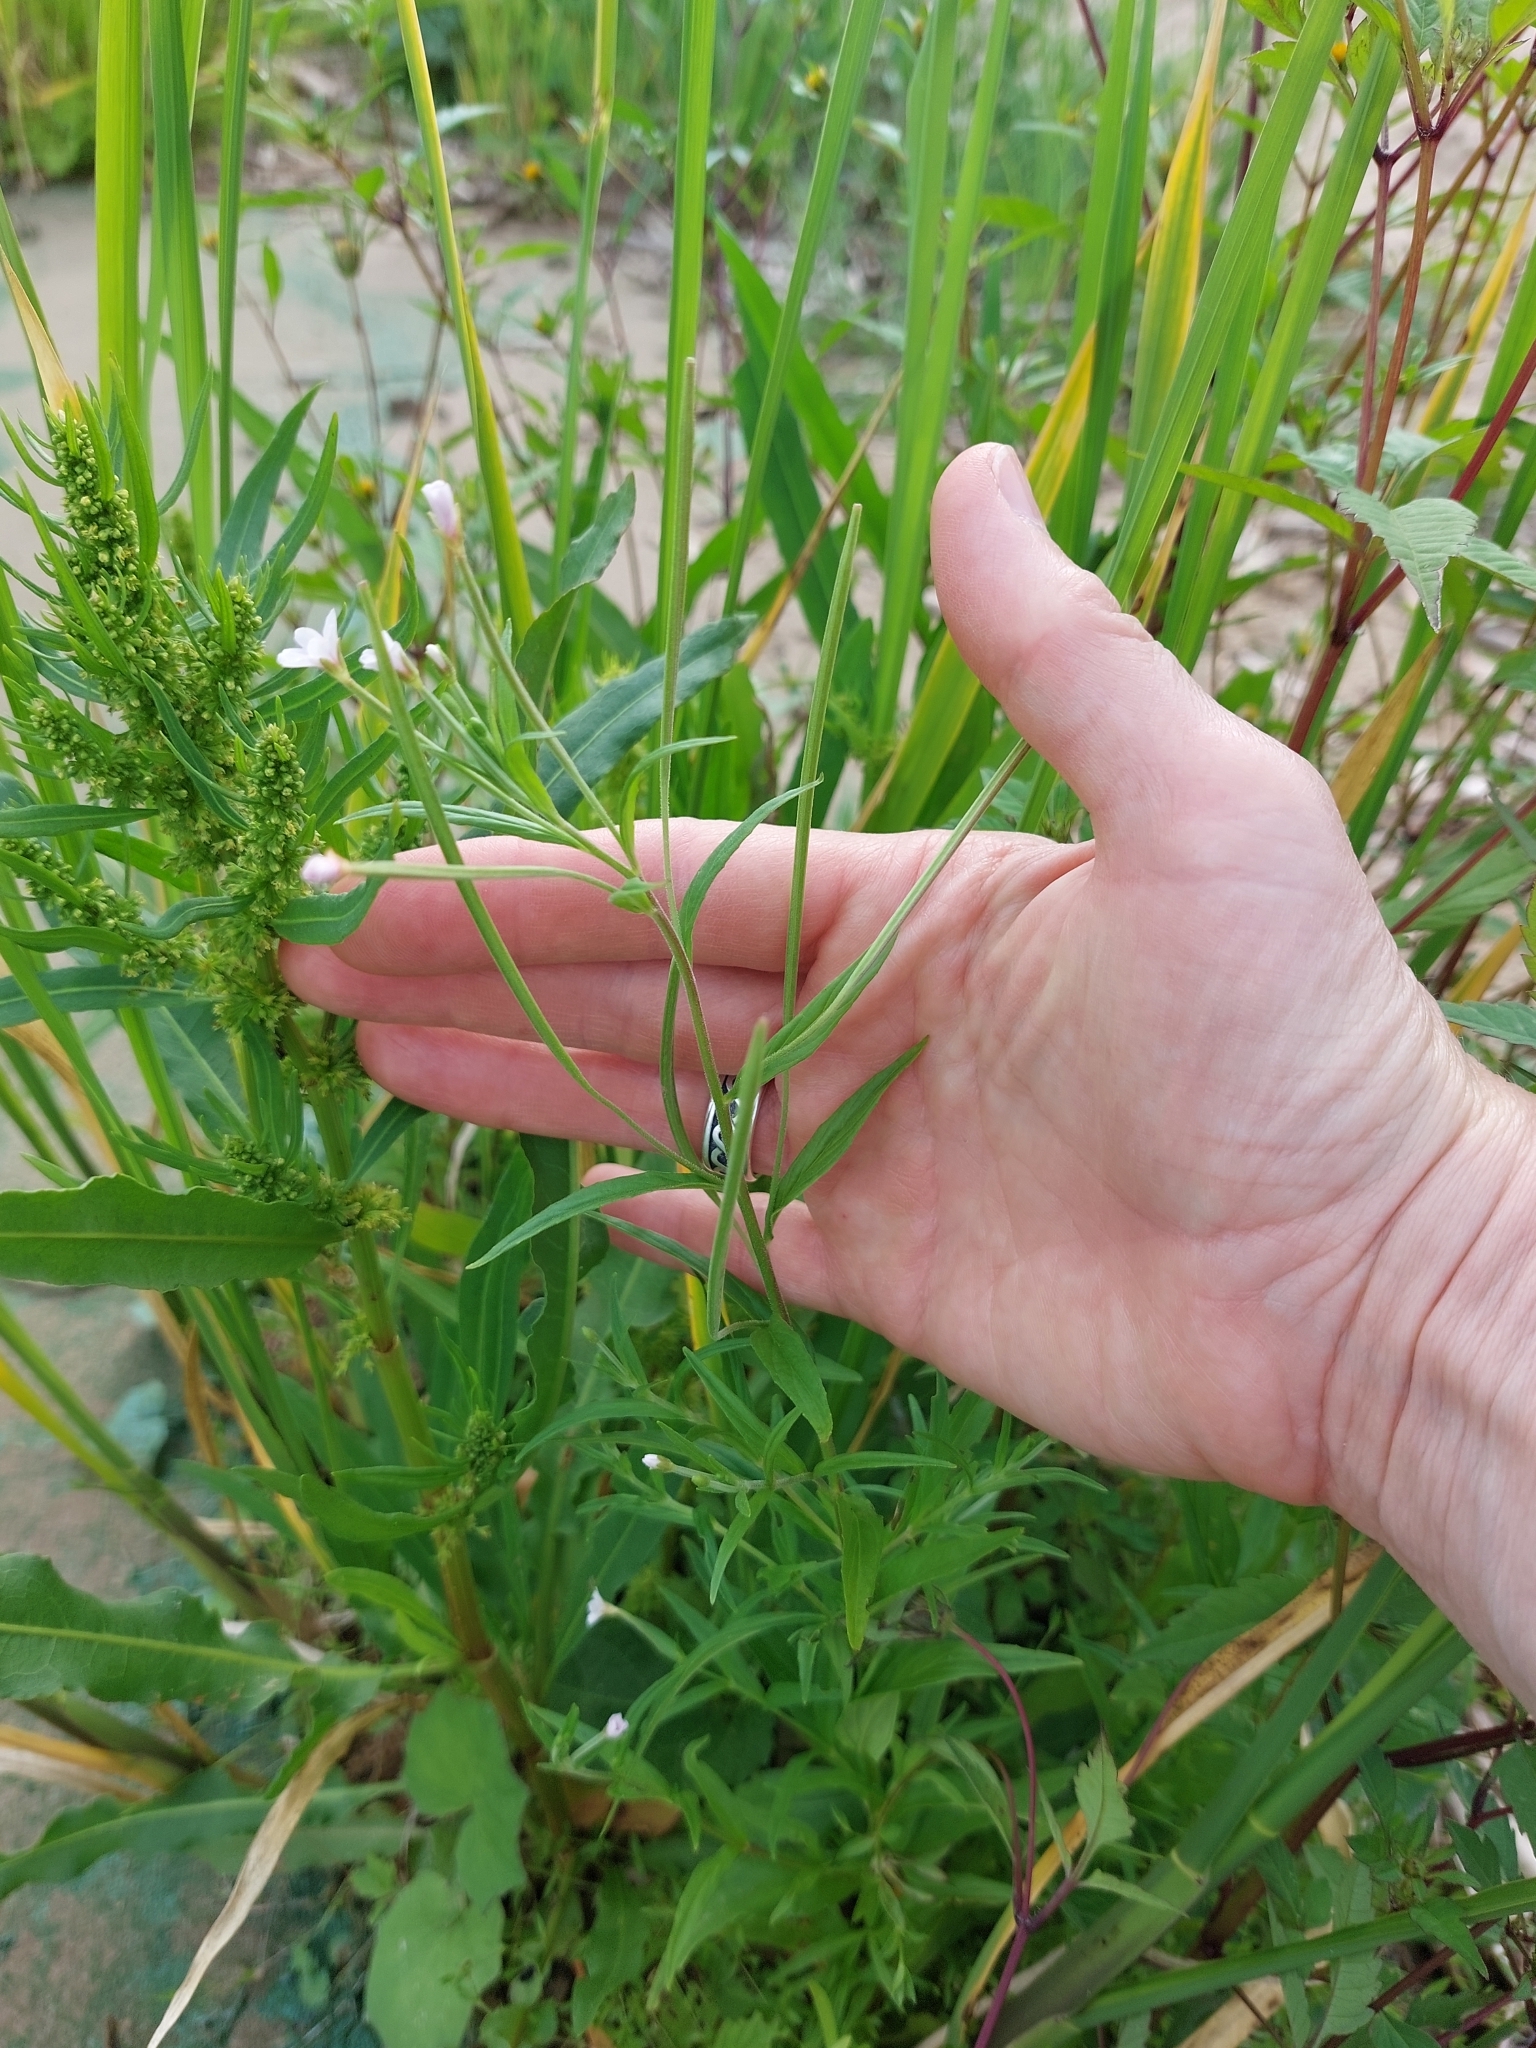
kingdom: Plantae
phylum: Tracheophyta
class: Magnoliopsida
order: Myrtales
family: Onagraceae
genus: Epilobium
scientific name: Epilobium palustre
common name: Marsh willowherb
